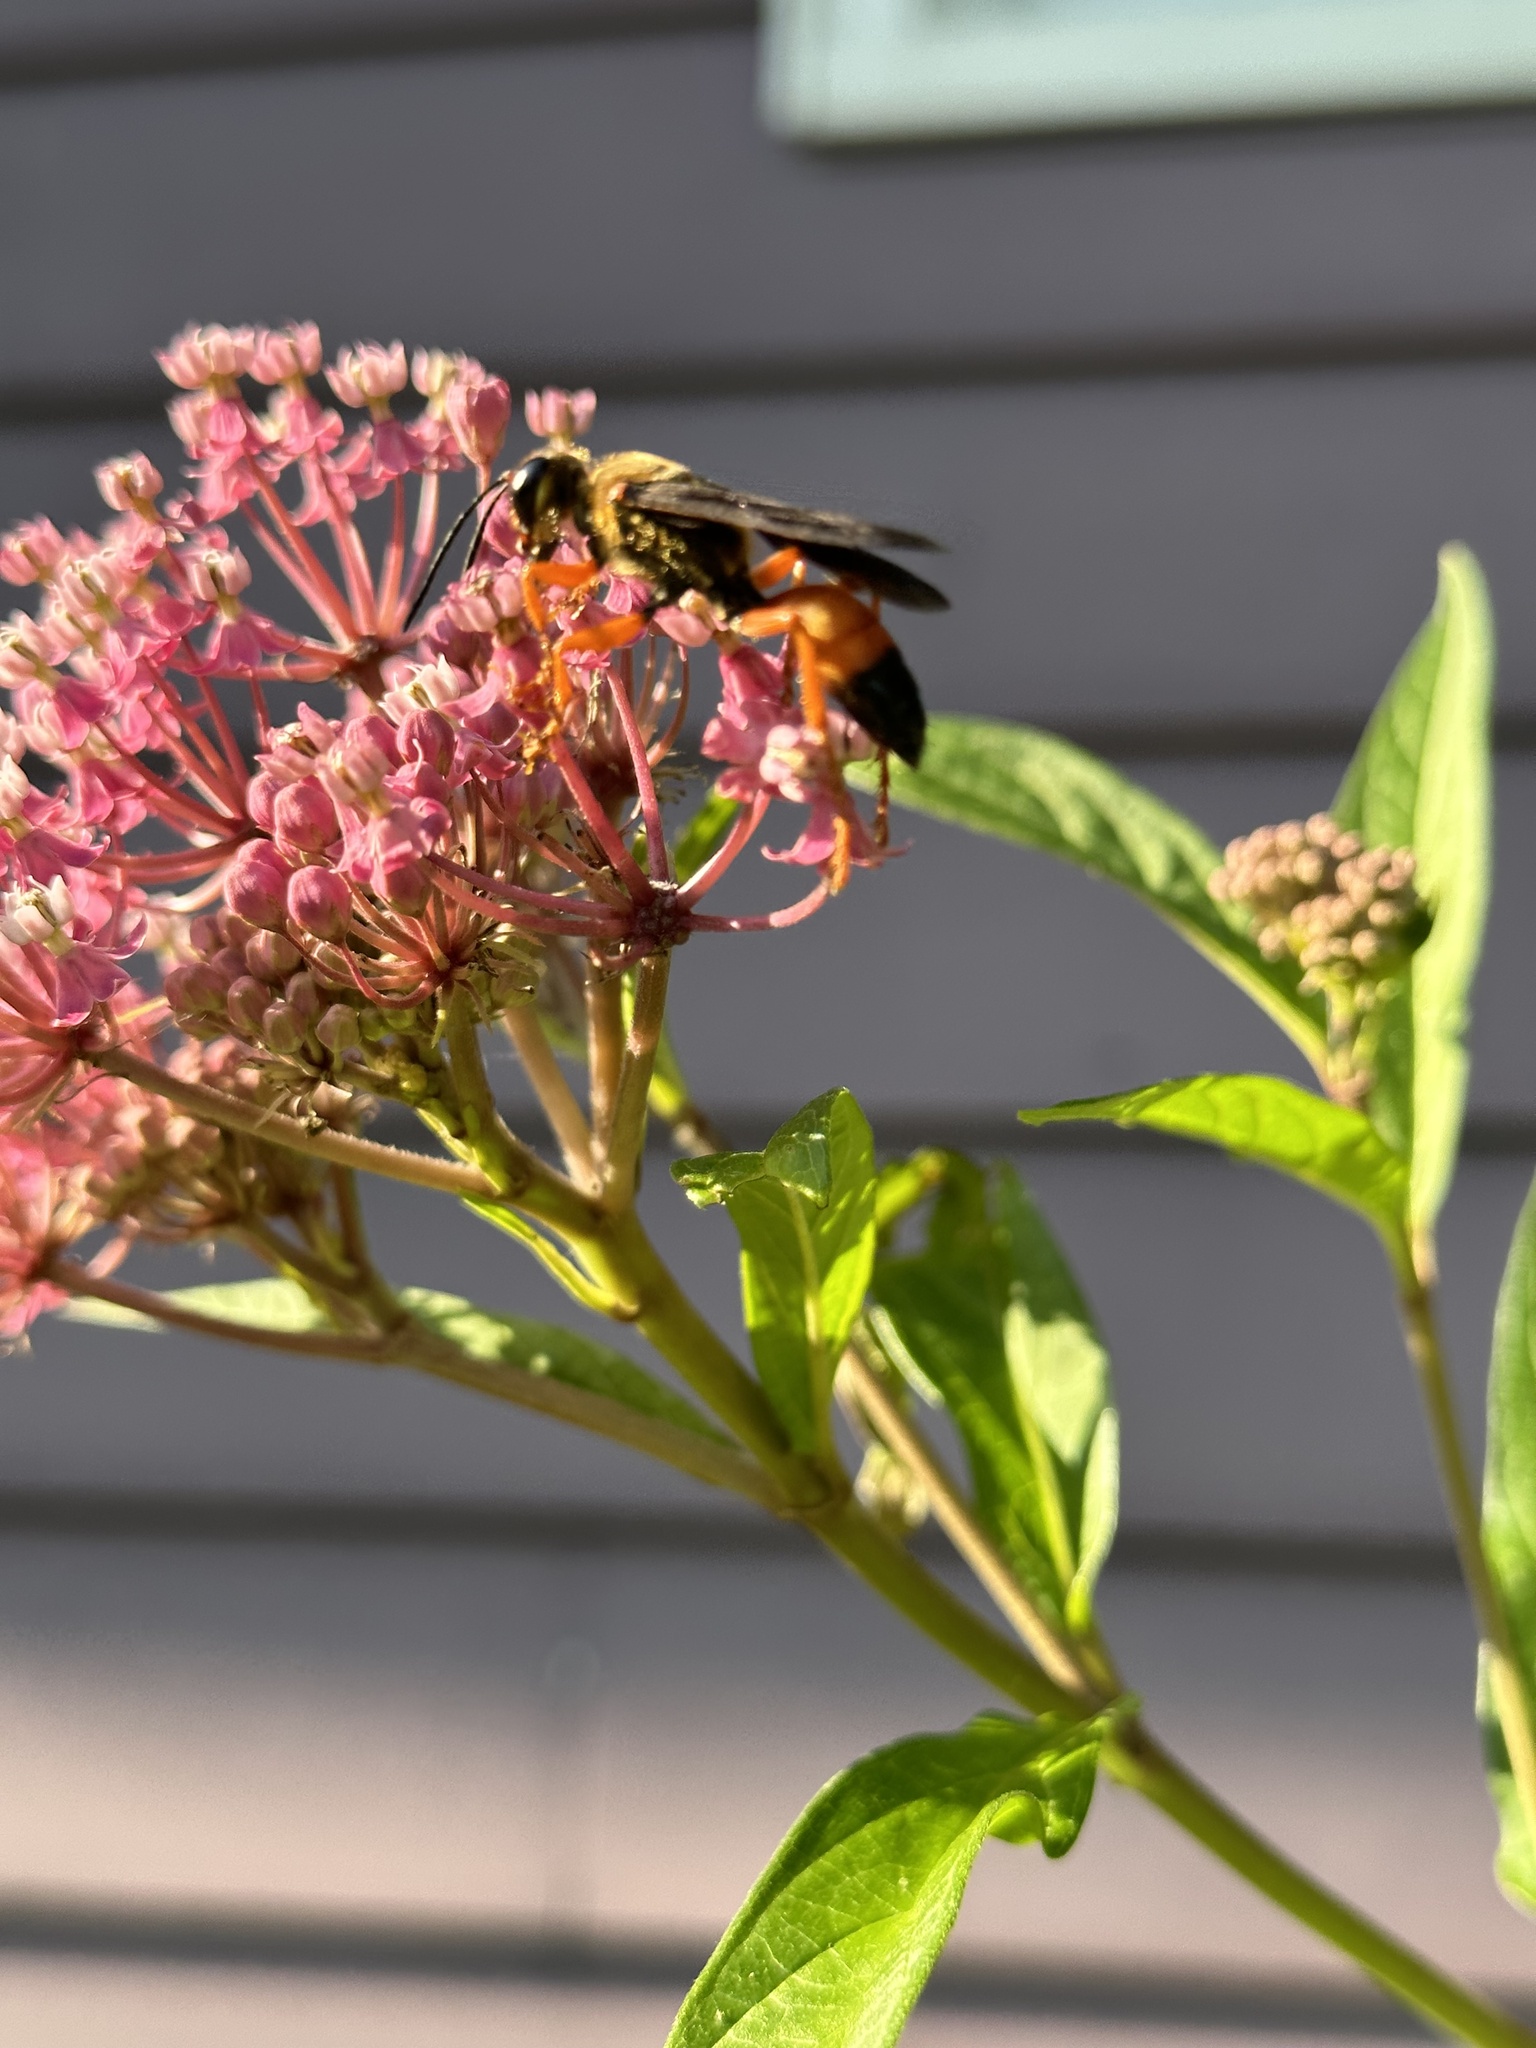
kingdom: Animalia
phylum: Arthropoda
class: Insecta
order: Hymenoptera
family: Sphecidae
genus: Sphex
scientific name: Sphex ichneumoneus
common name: Great golden digger wasp
